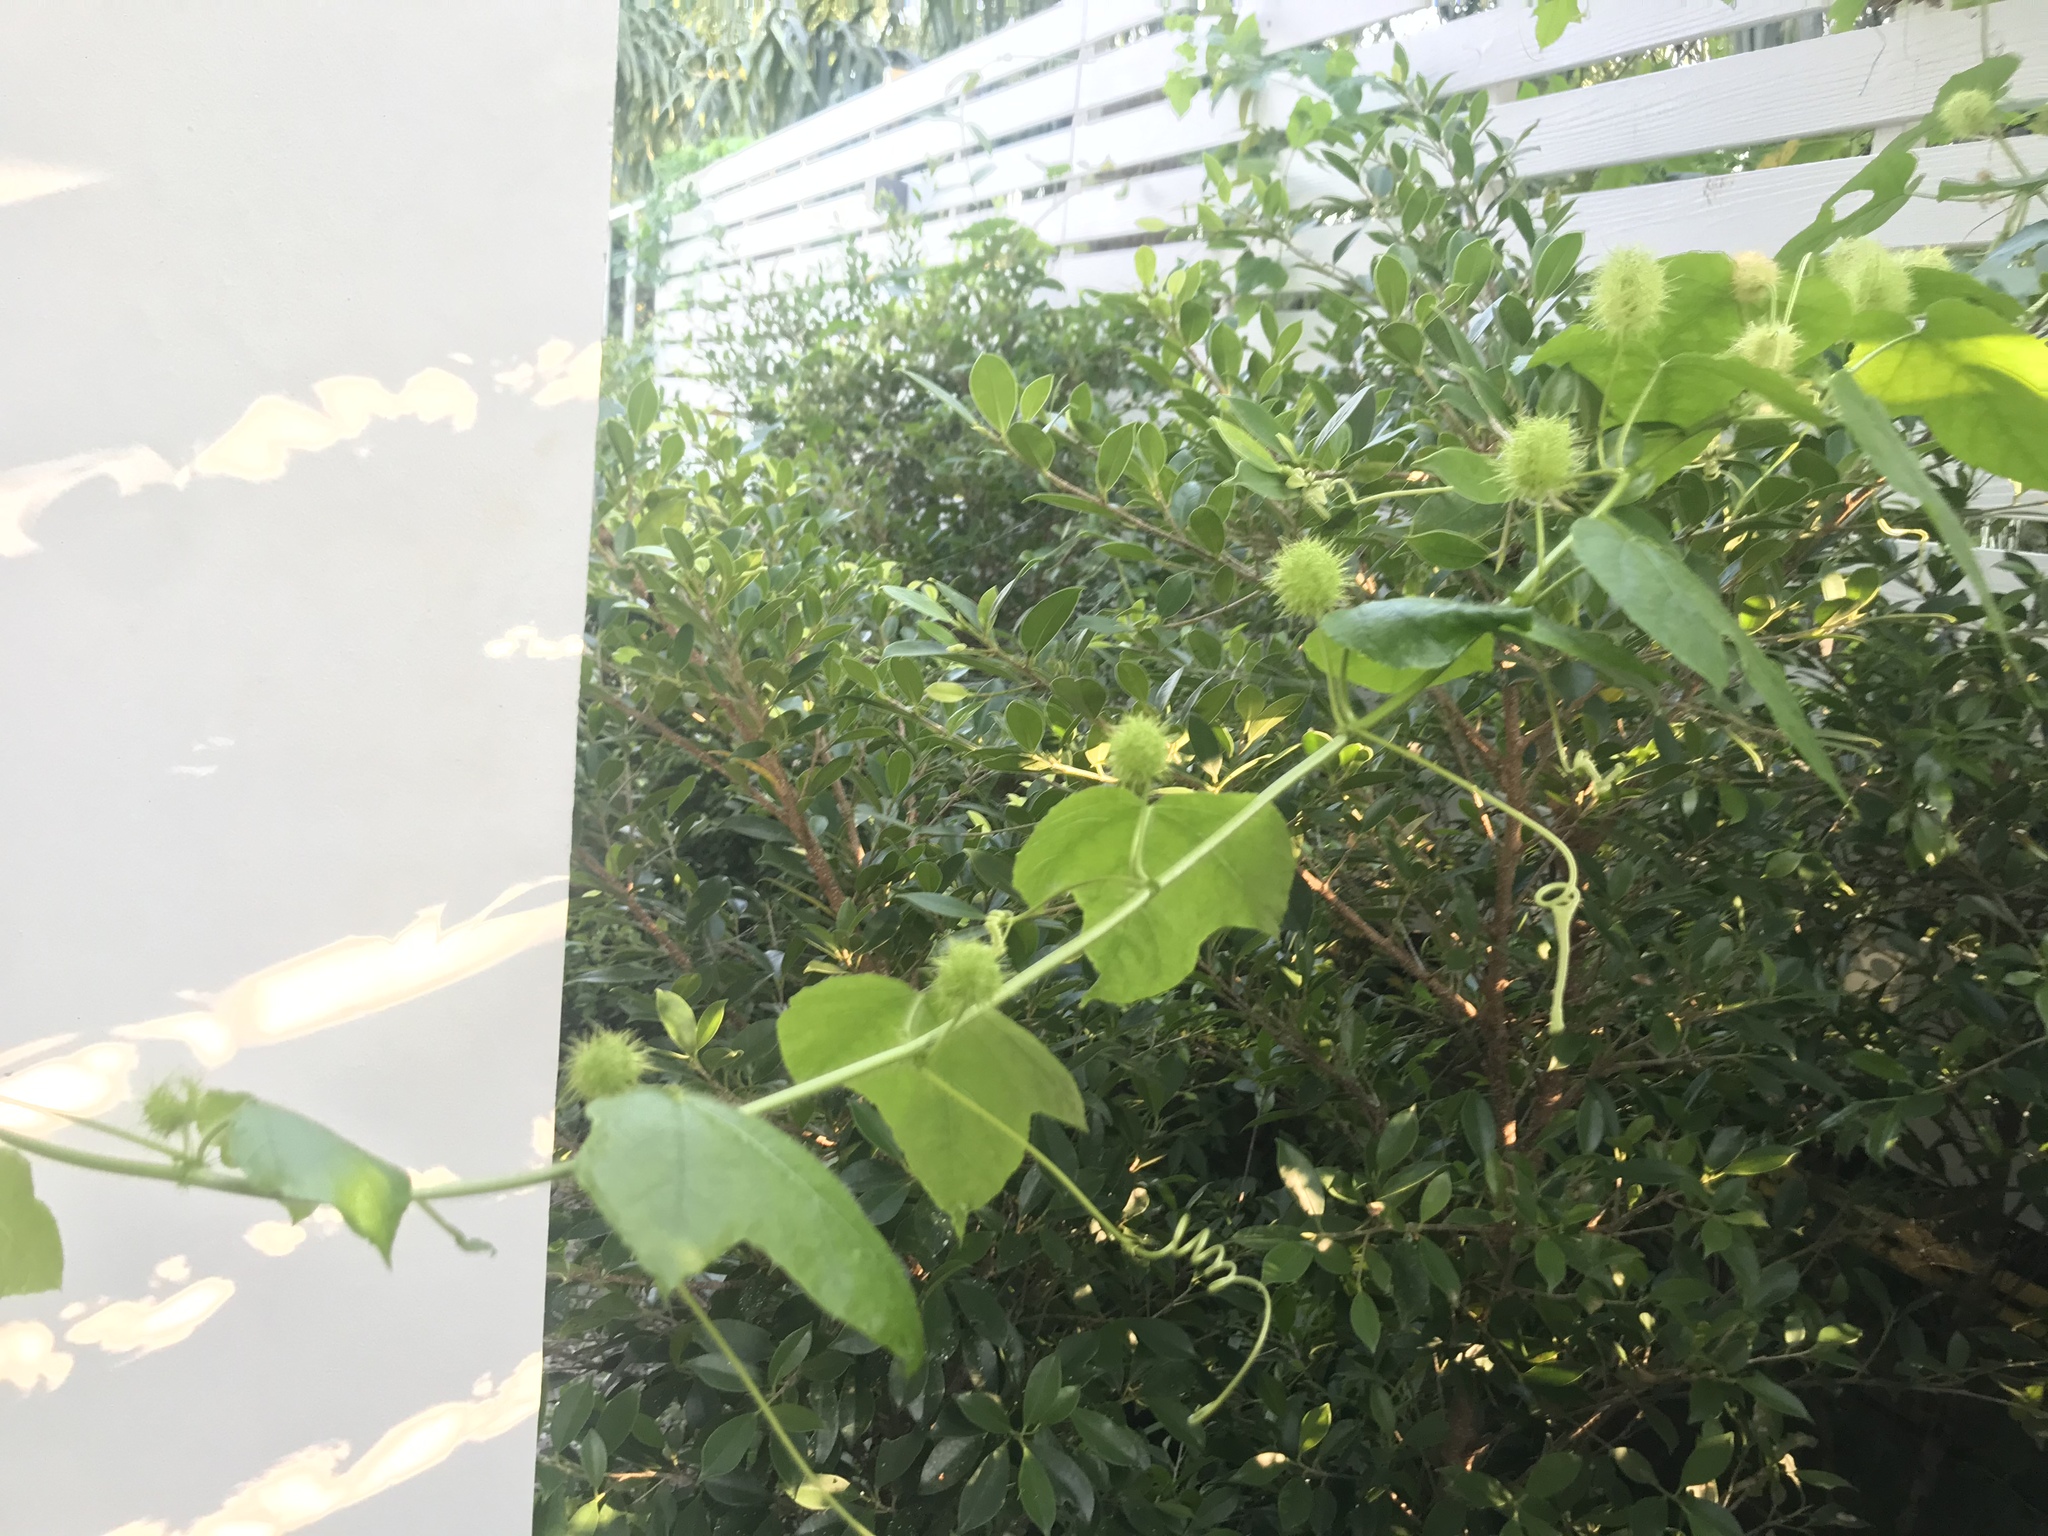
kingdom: Plantae
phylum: Tracheophyta
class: Magnoliopsida
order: Malpighiales
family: Passifloraceae
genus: Passiflora
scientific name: Passiflora foetida
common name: Fetid passionflower
